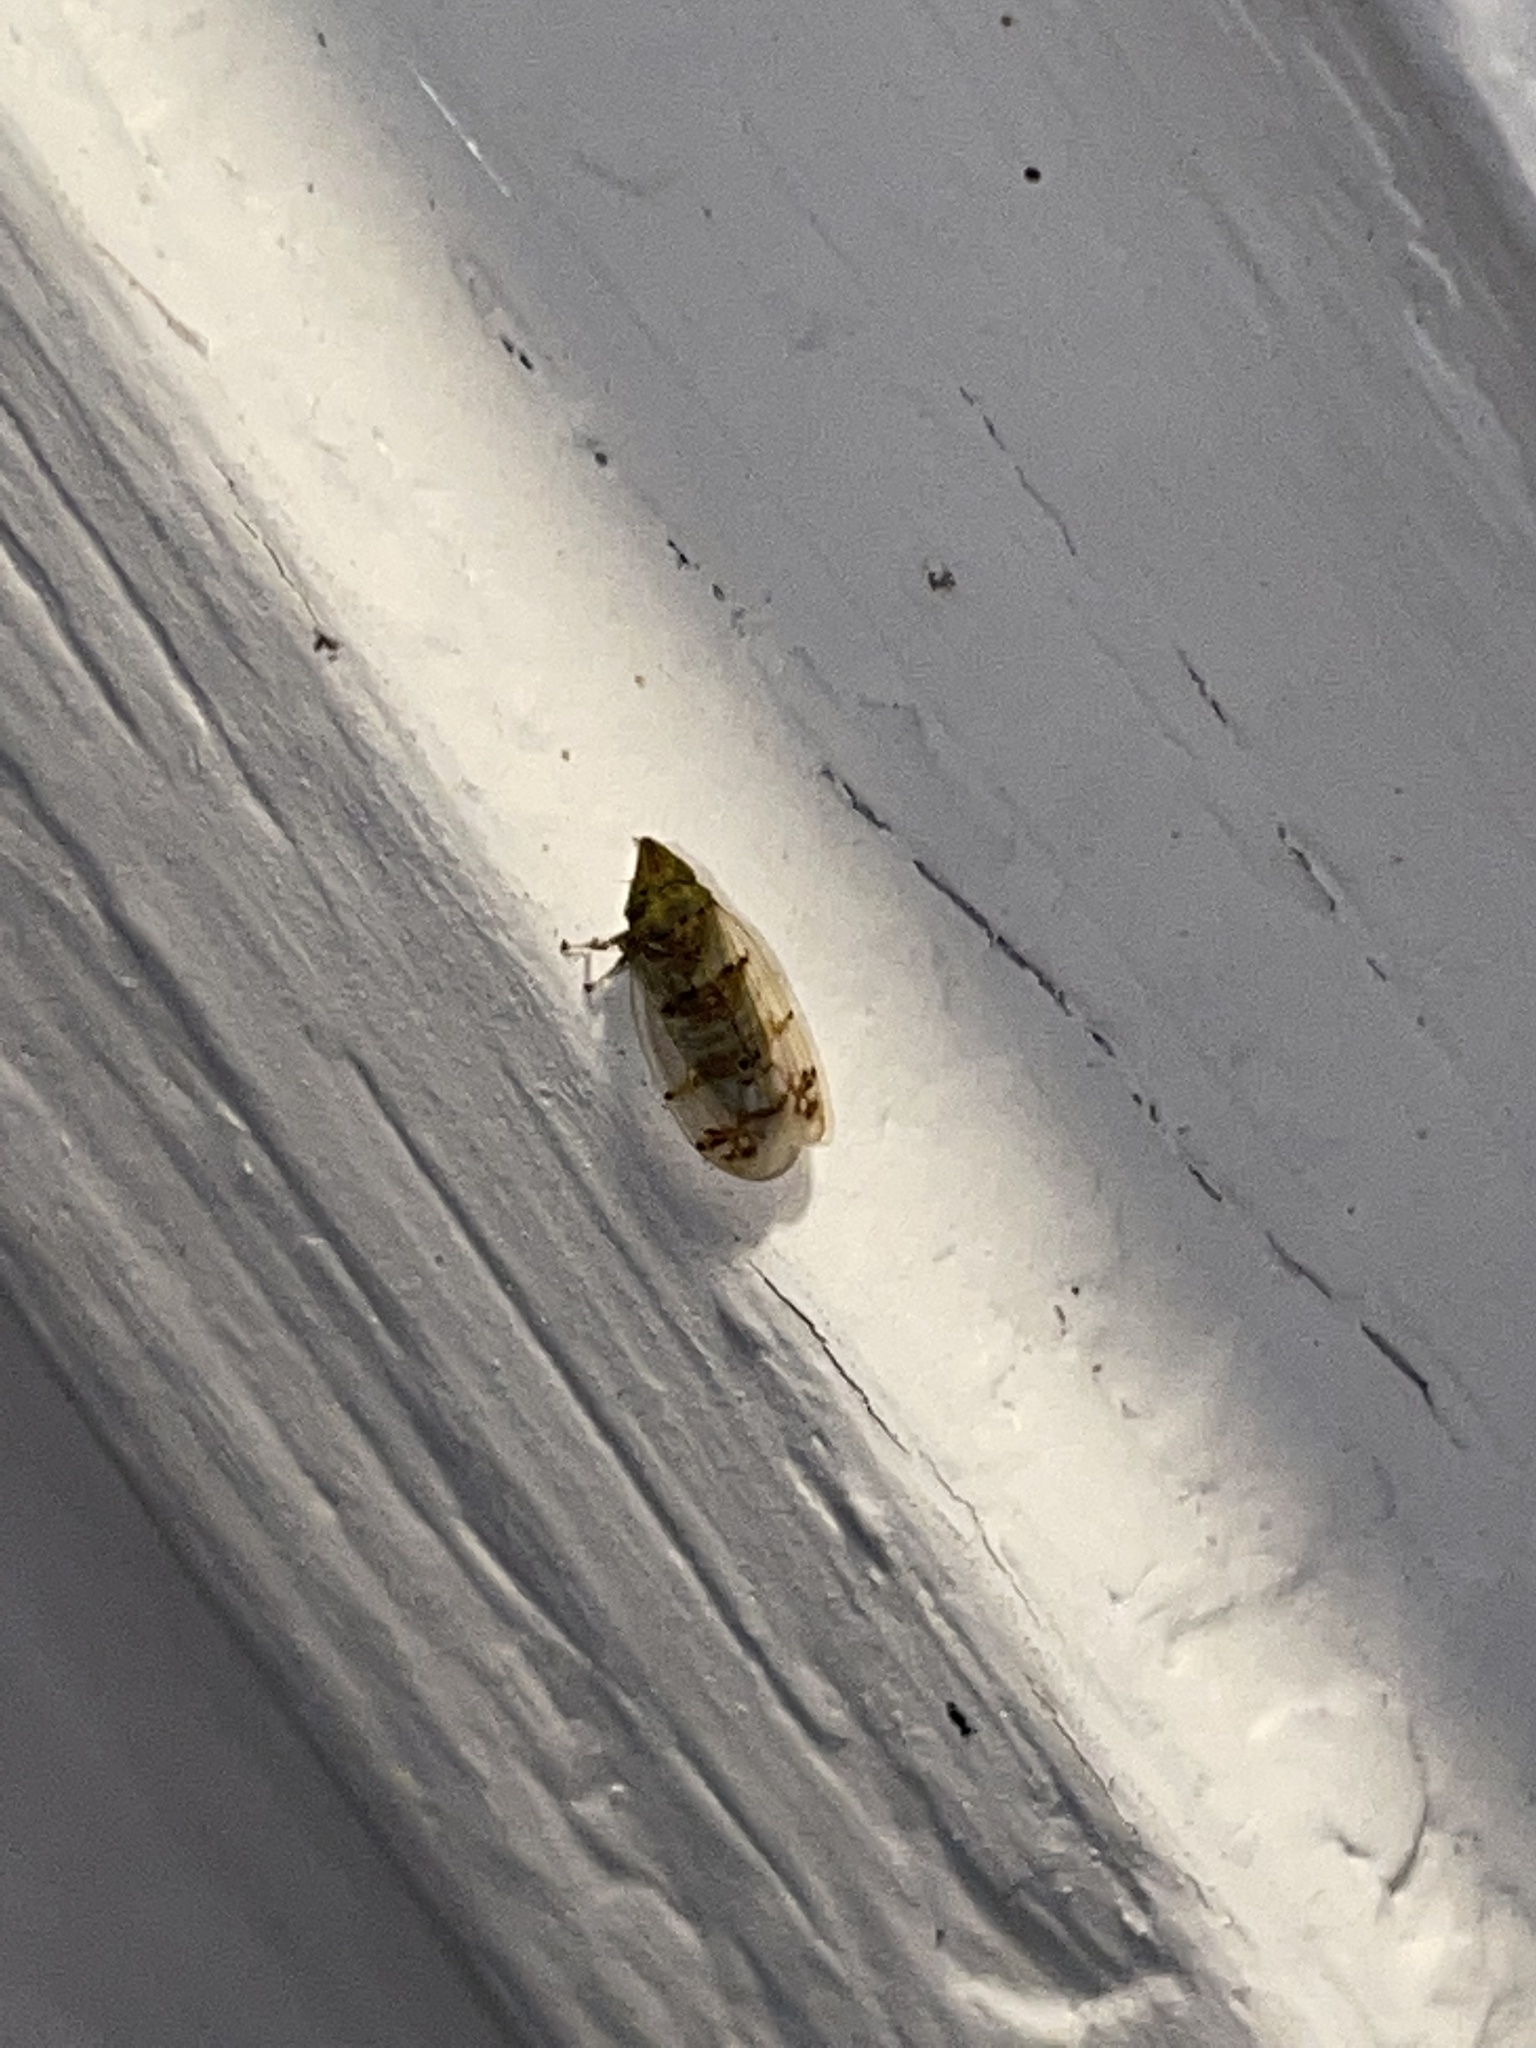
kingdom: Animalia
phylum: Arthropoda
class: Insecta
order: Hemiptera
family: Cicadellidae
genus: Japananus
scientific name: Japananus hyalinus
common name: The japanese maple leafhopper
